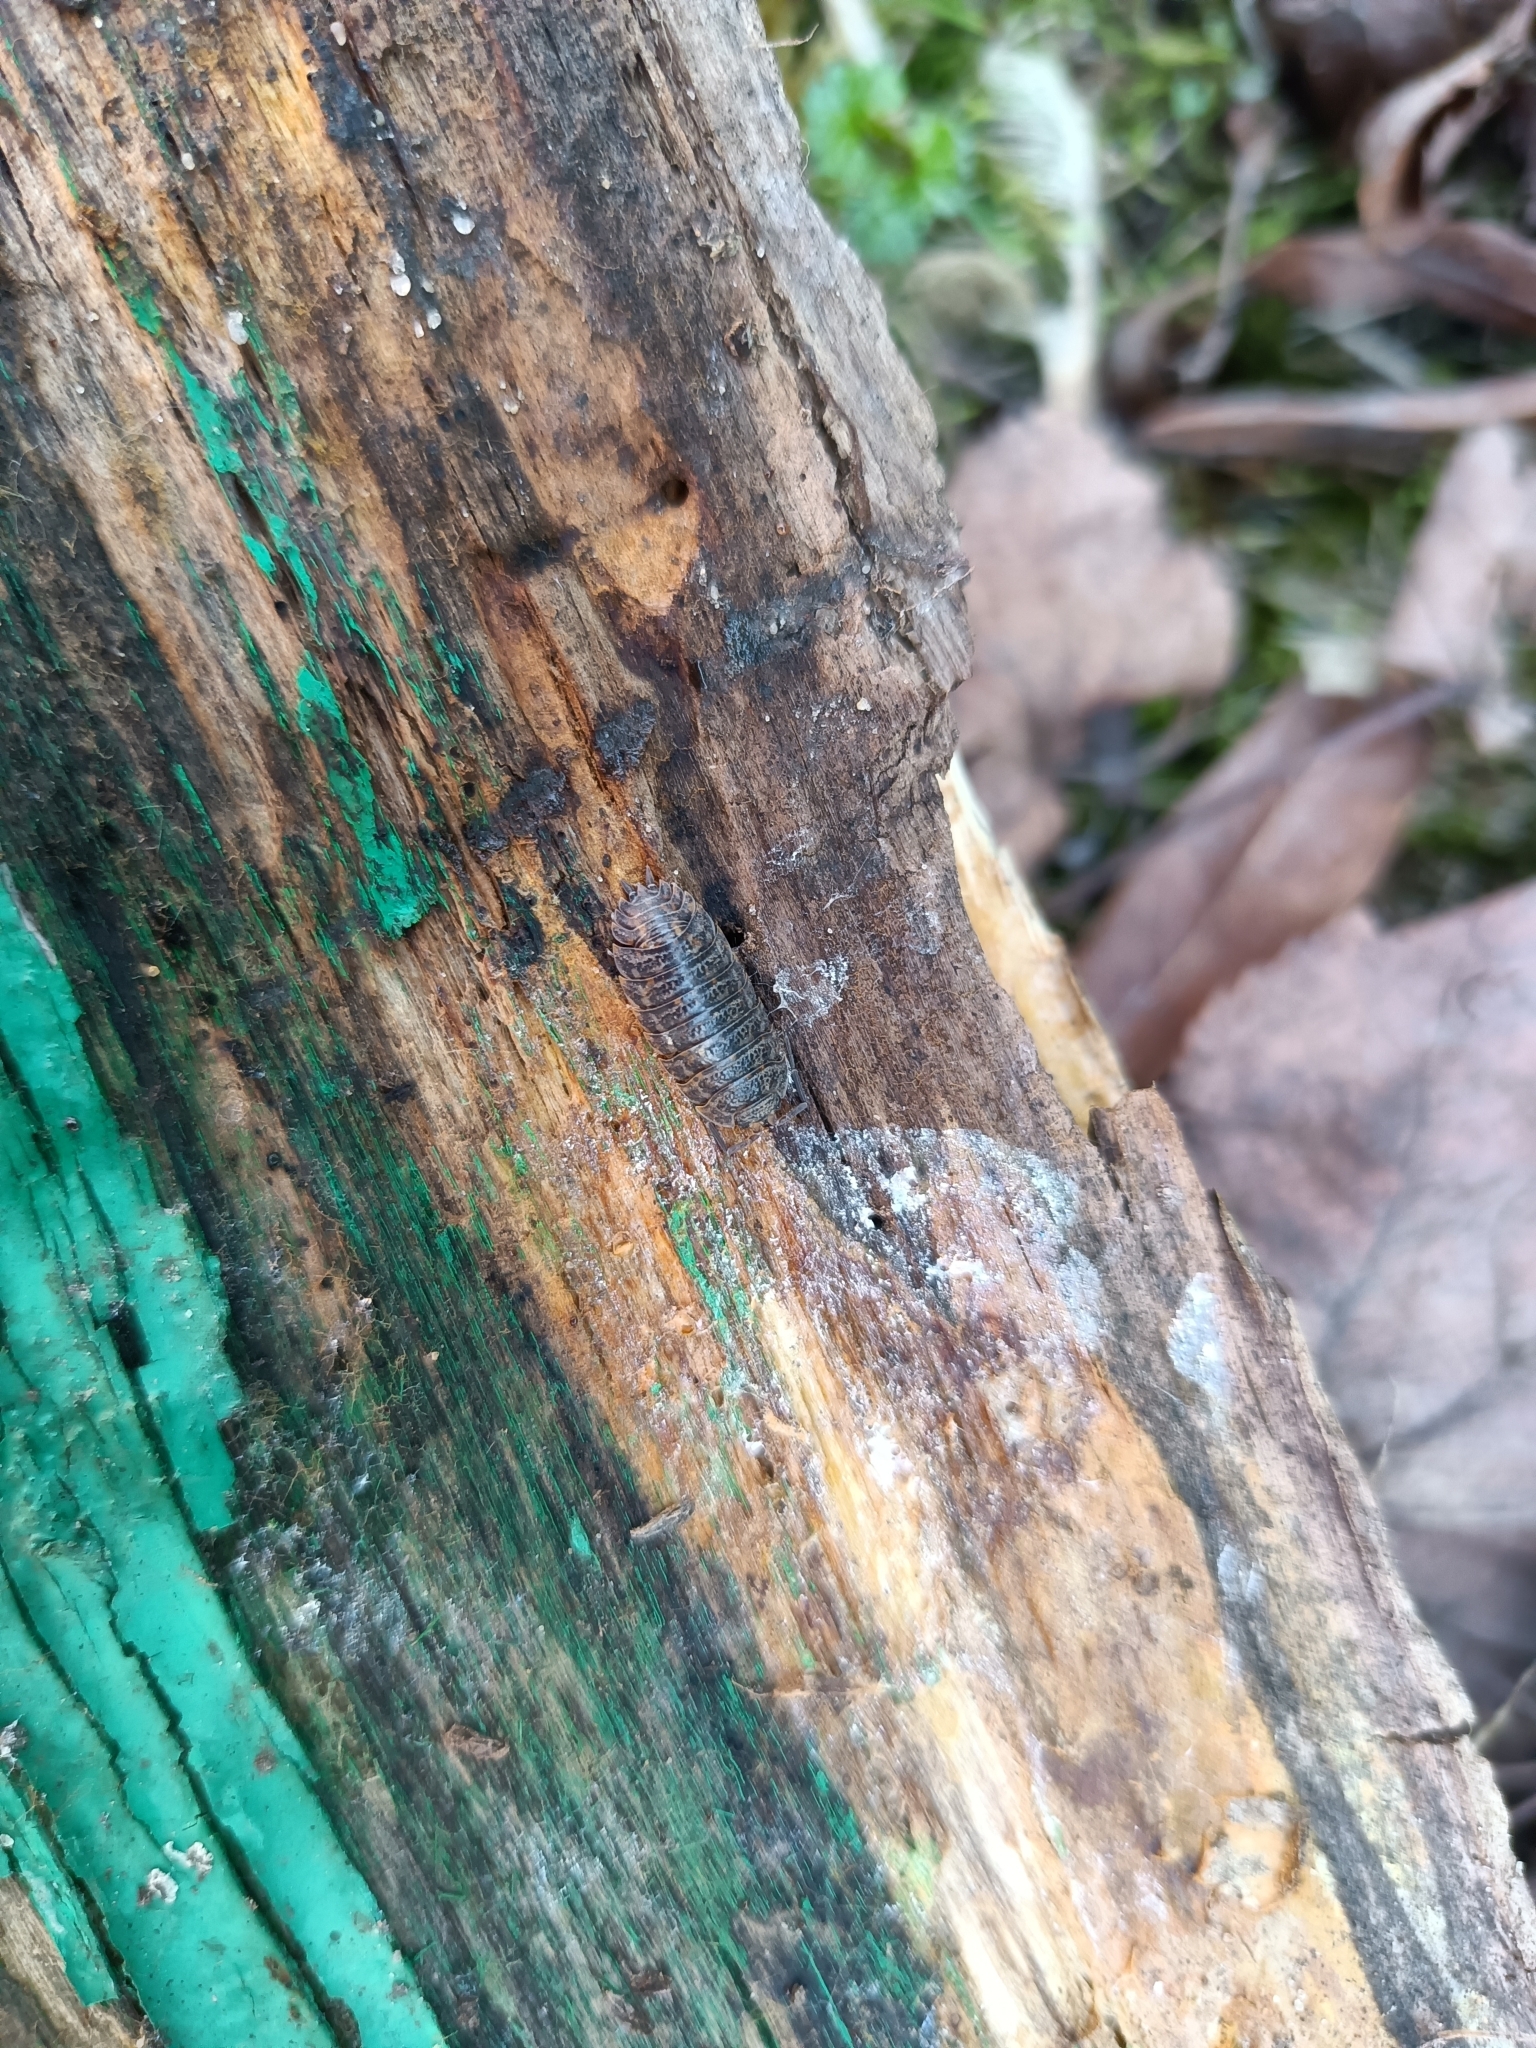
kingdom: Animalia
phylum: Arthropoda
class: Malacostraca
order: Isopoda
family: Trachelipodidae
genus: Trachelipus
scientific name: Trachelipus rathkii
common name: Isopod
